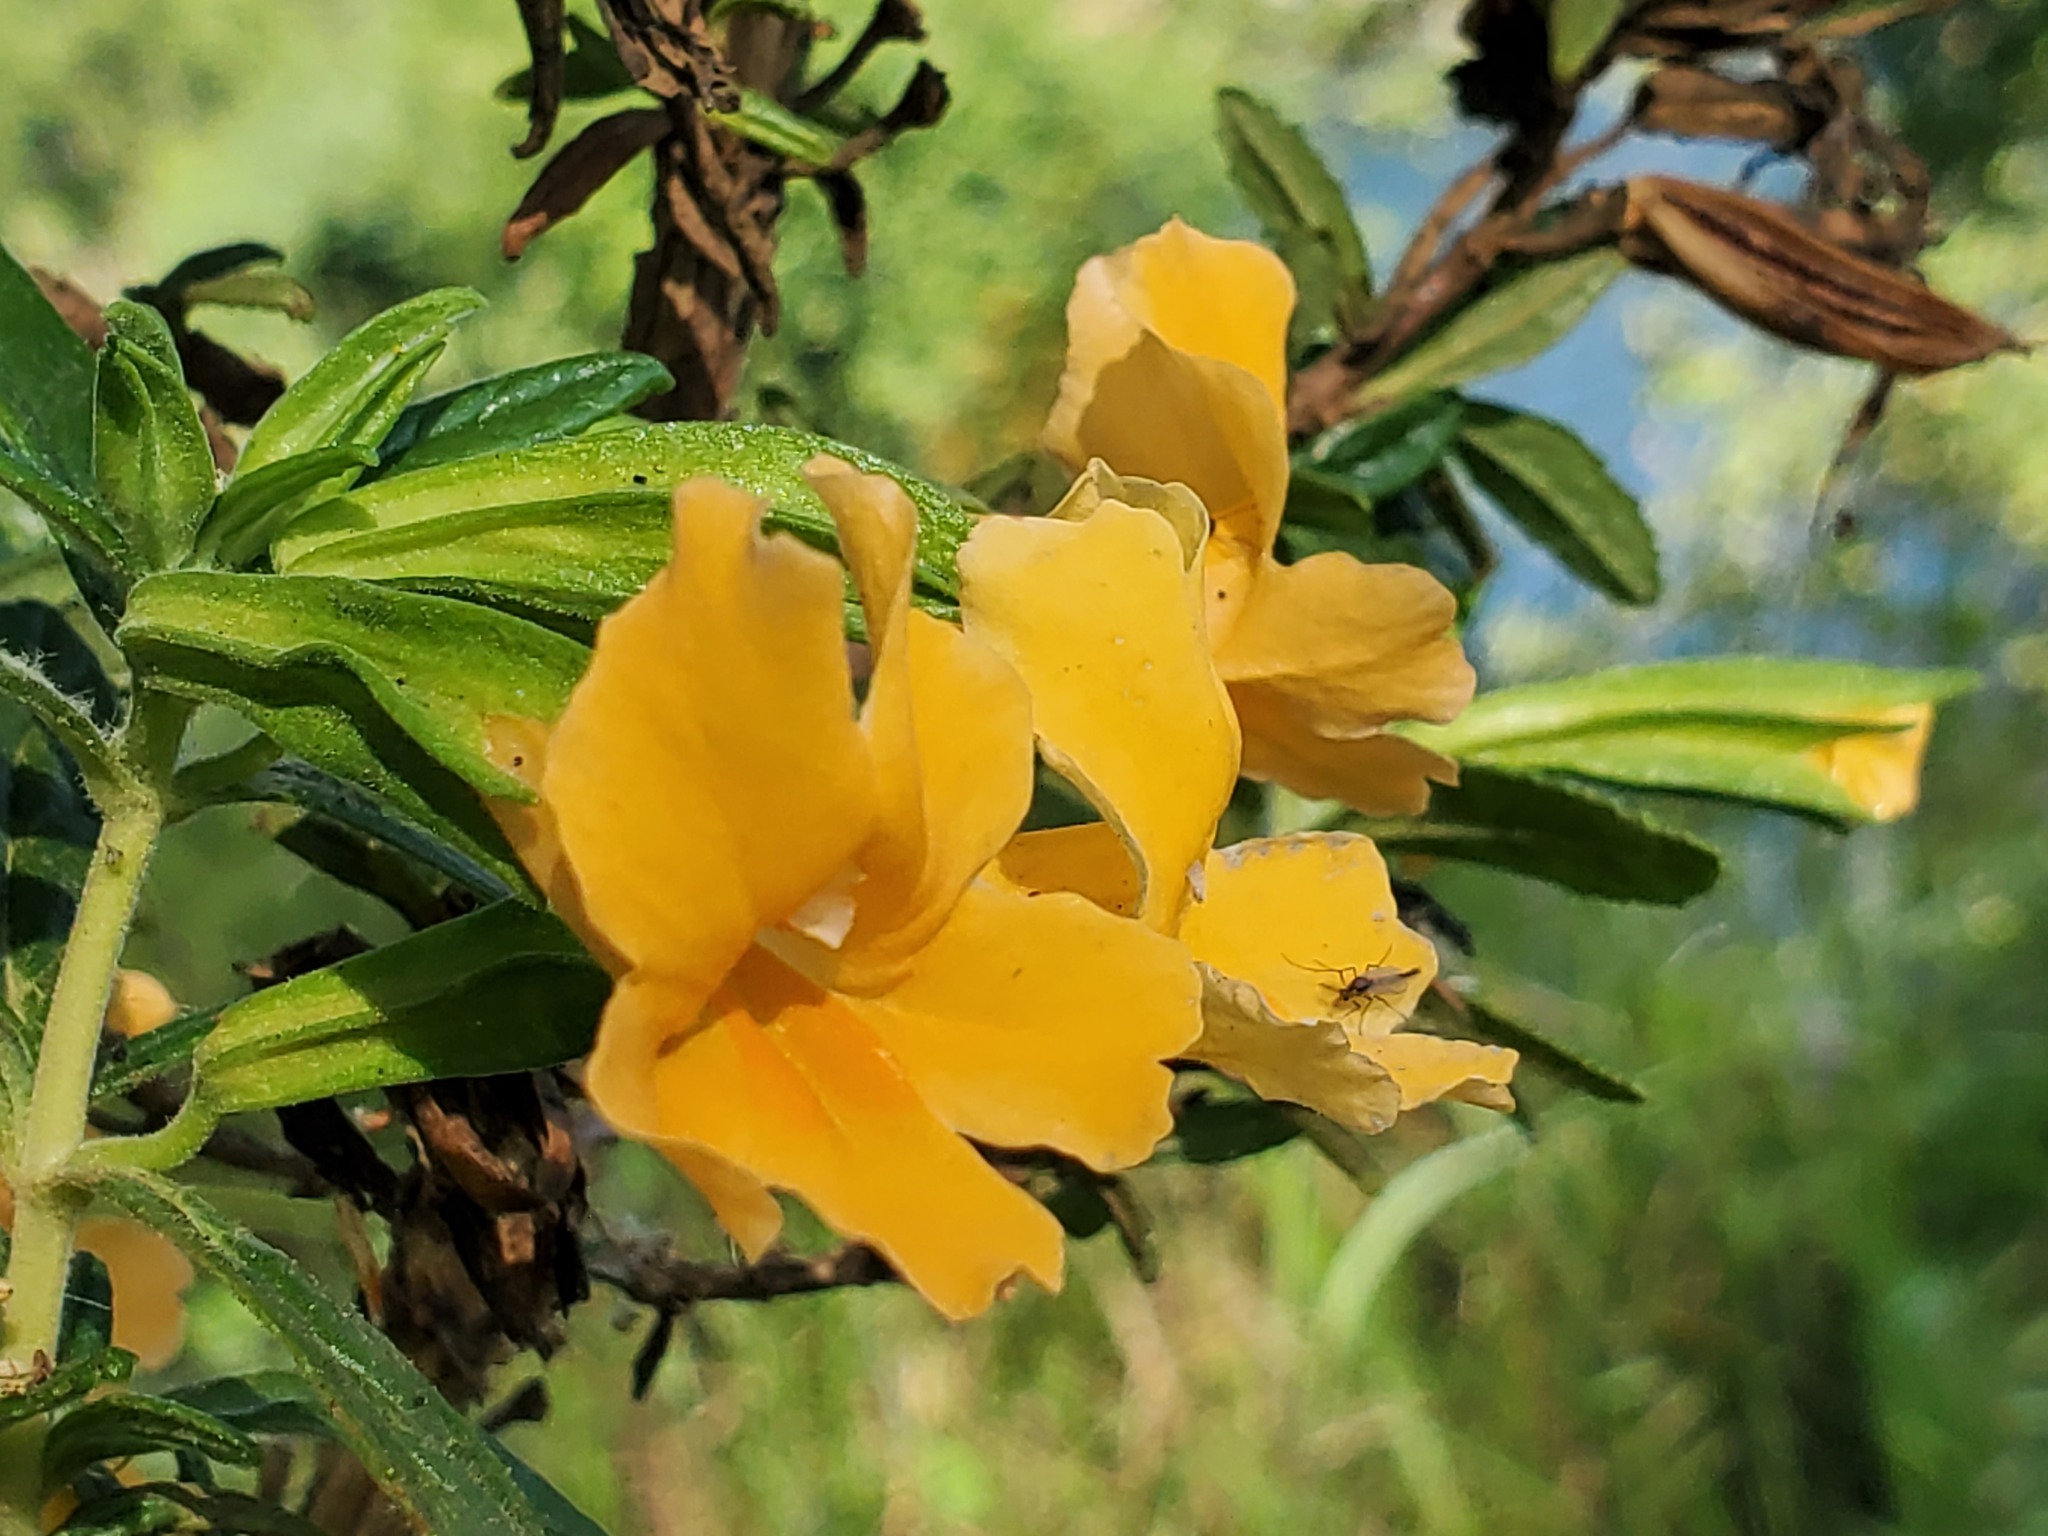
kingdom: Plantae
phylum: Tracheophyta
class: Magnoliopsida
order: Lamiales
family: Phrymaceae
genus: Diplacus
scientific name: Diplacus aurantiacus
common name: Bush monkey-flower
